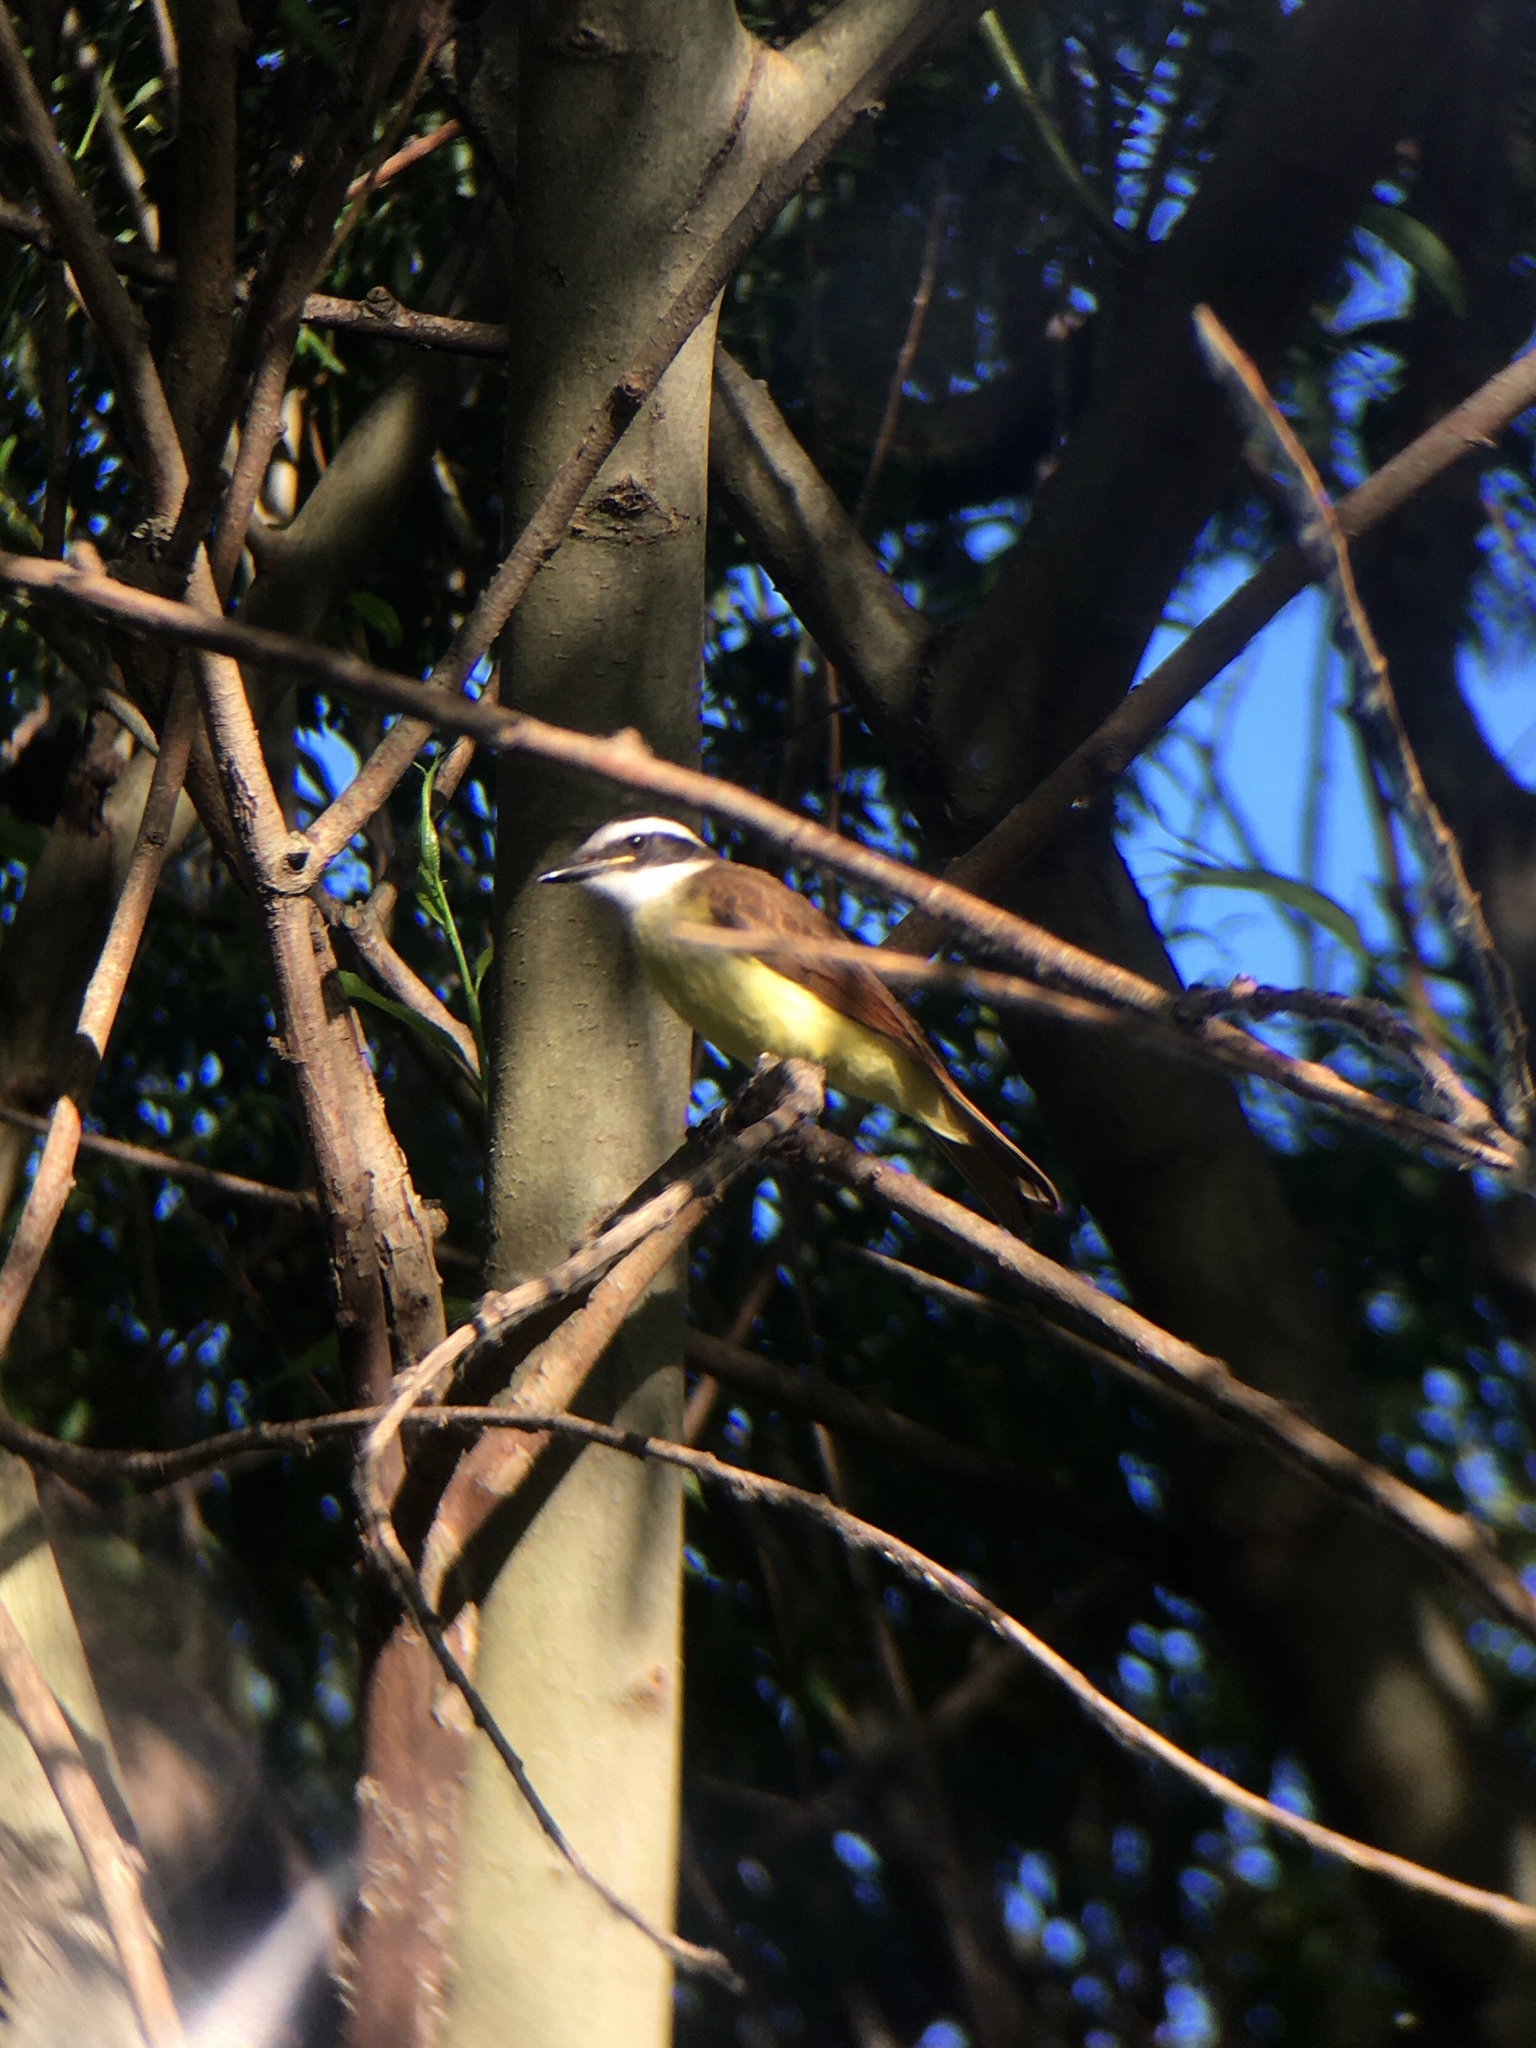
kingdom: Animalia
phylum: Chordata
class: Aves
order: Passeriformes
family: Tyrannidae
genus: Pitangus
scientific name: Pitangus sulphuratus
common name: Great kiskadee
